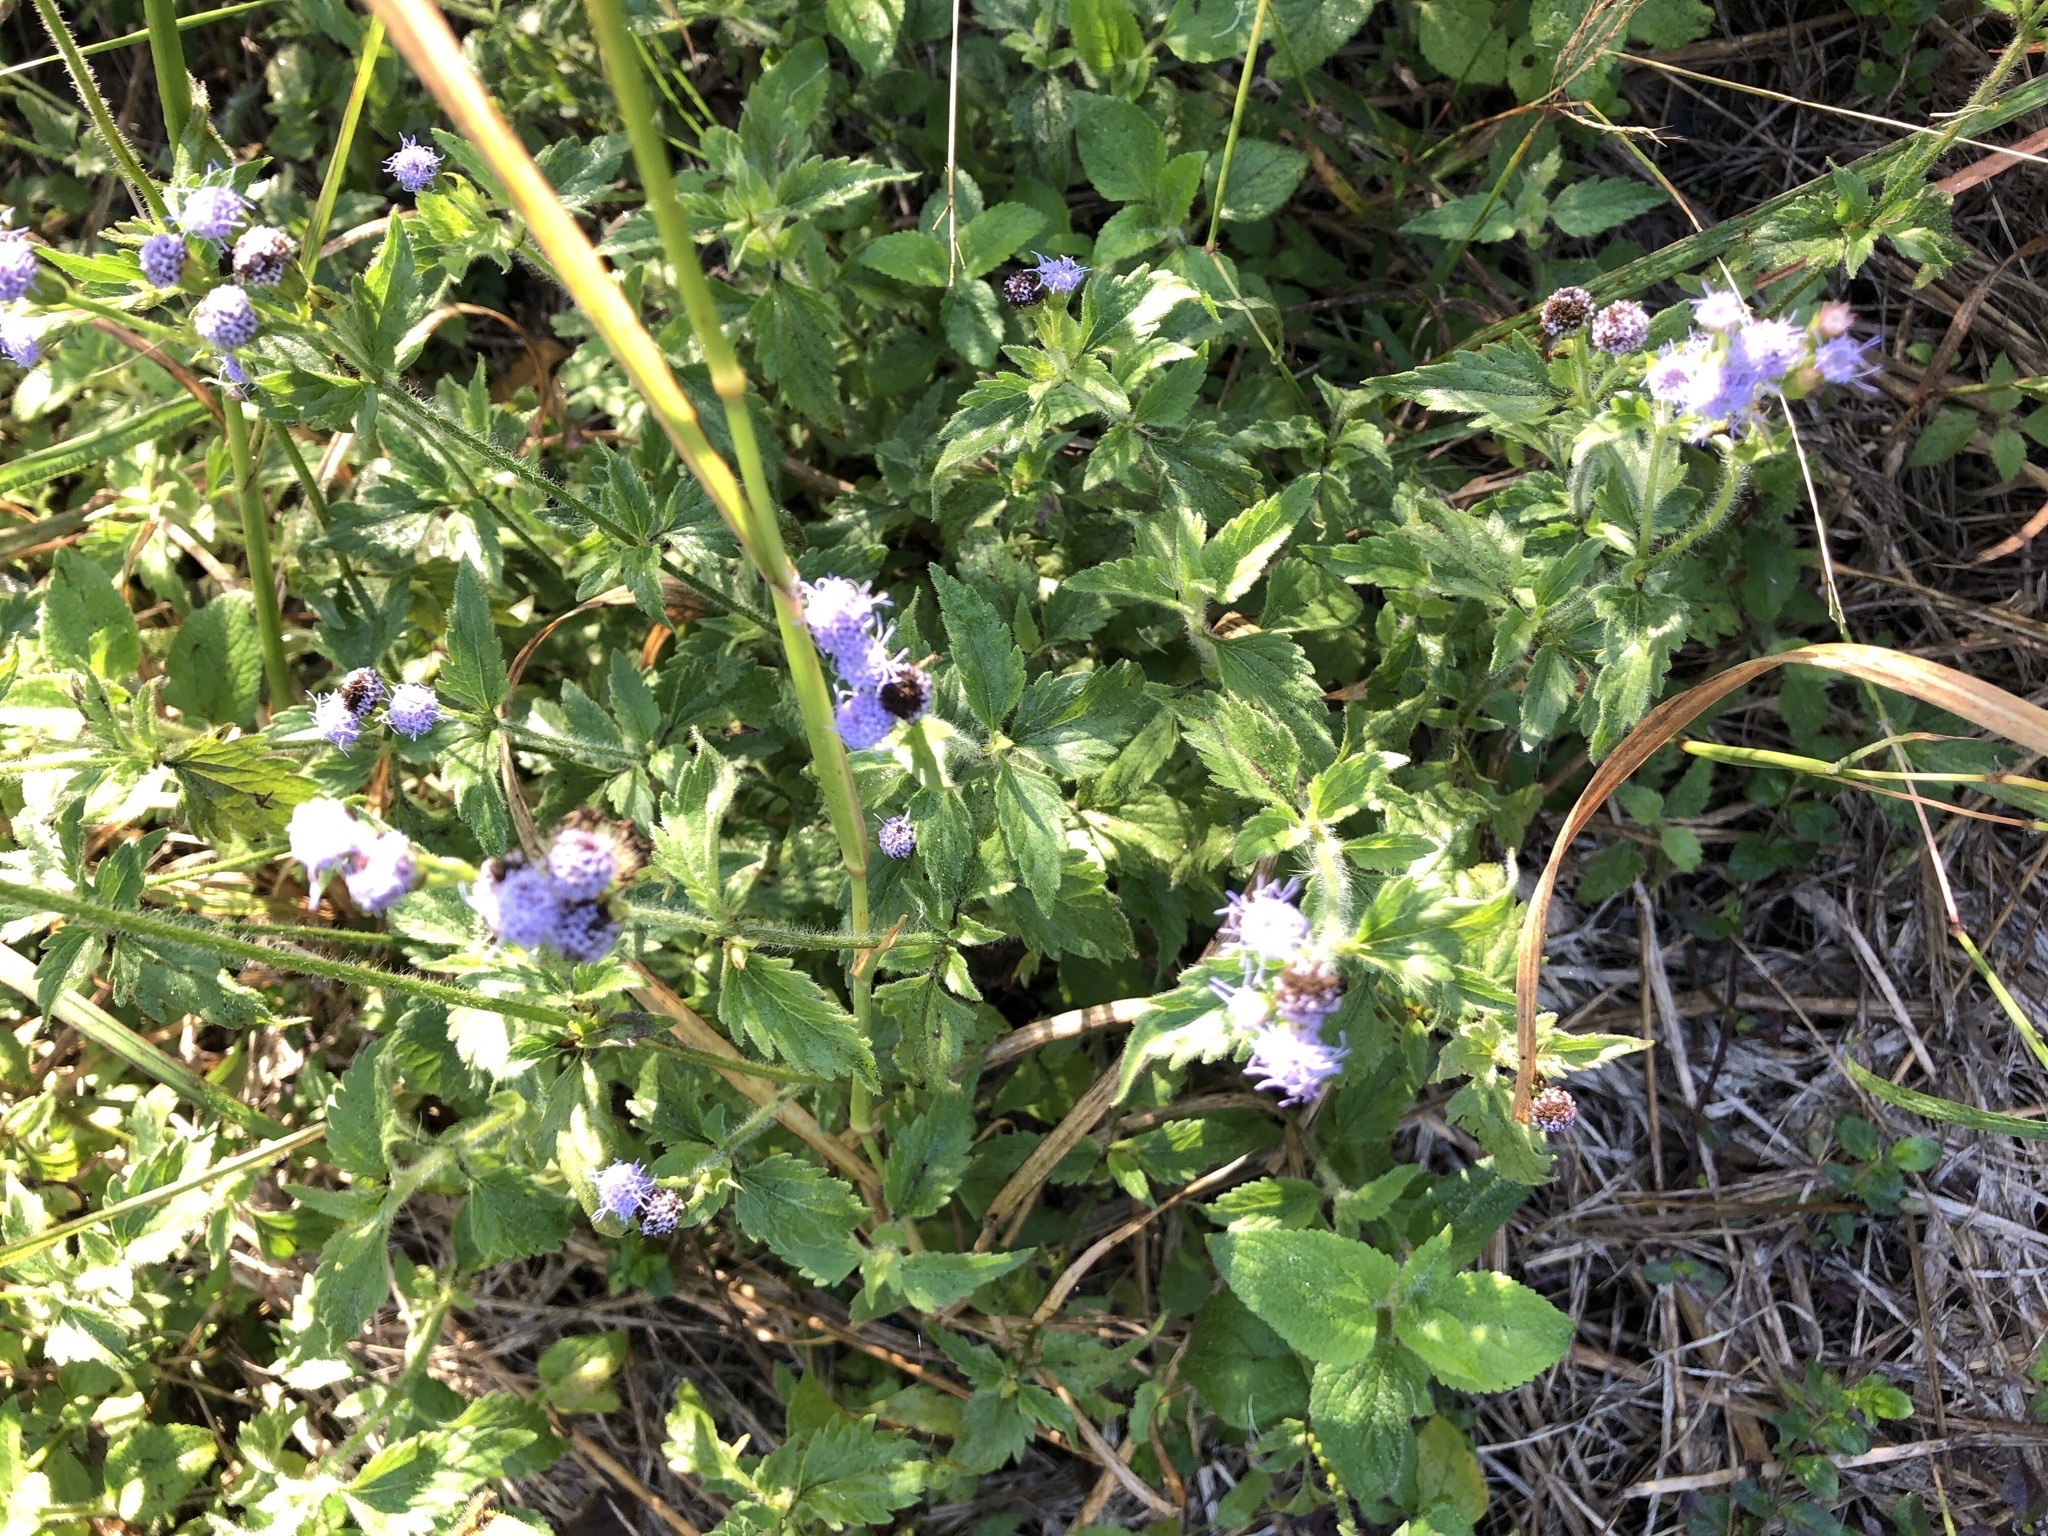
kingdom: Plantae
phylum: Tracheophyta
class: Magnoliopsida
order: Asterales
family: Asteraceae
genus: Praxelis
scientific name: Praxelis clematidea
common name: Praxelis
